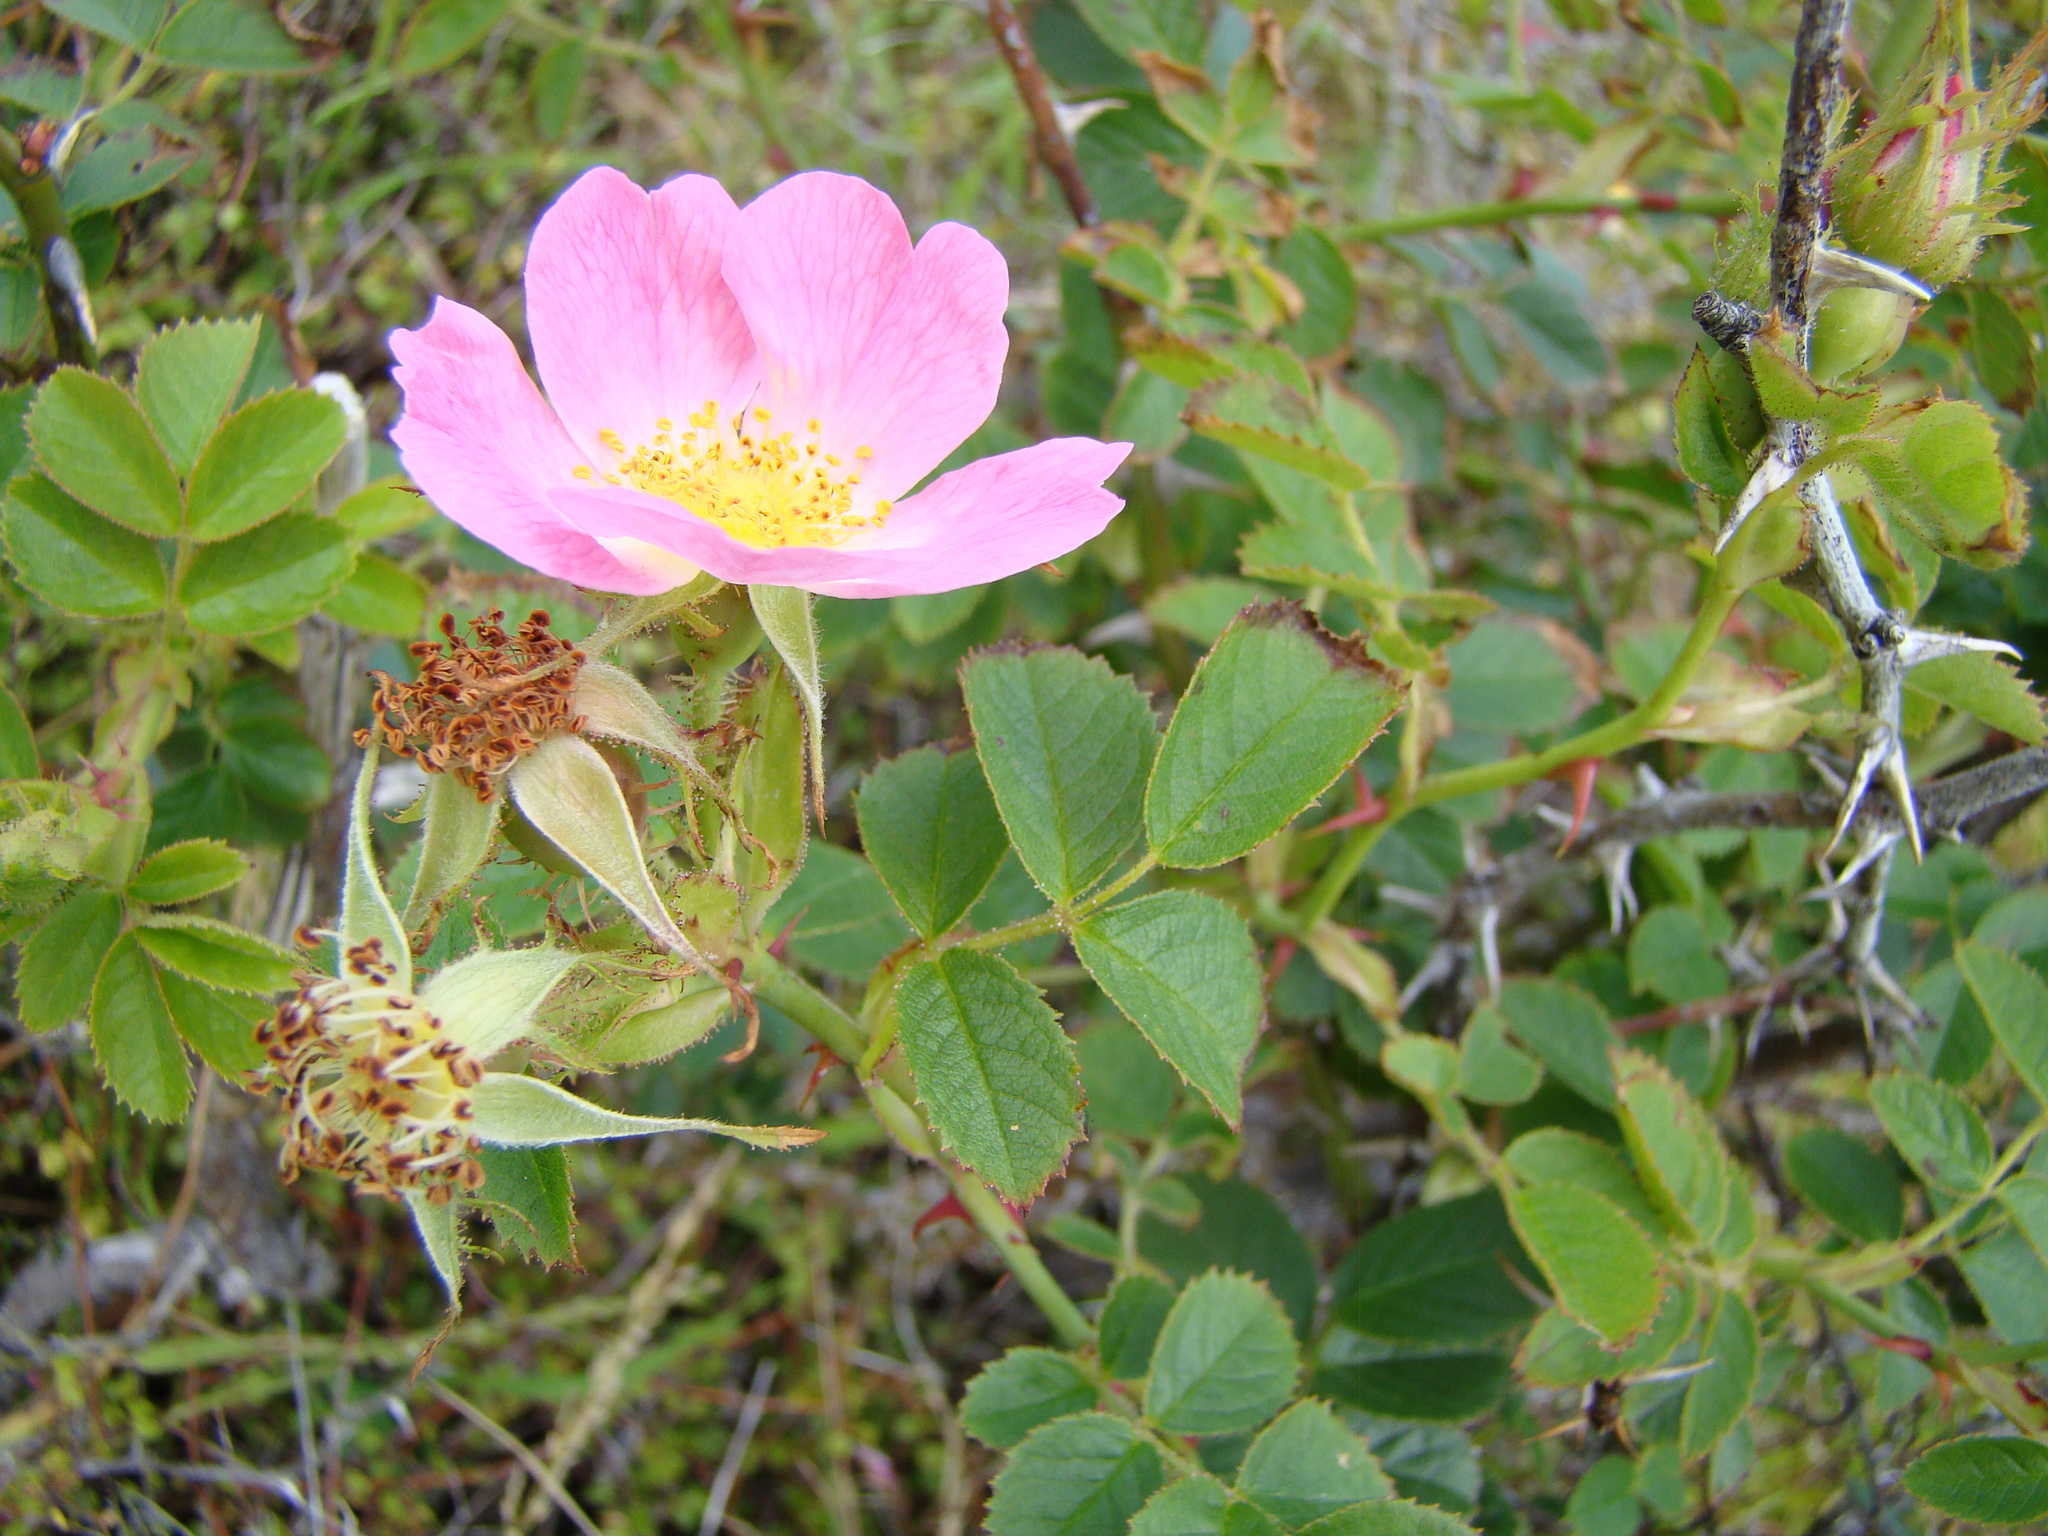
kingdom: Plantae
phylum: Tracheophyta
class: Magnoliopsida
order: Rosales
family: Rosaceae
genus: Rosa
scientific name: Rosa rubiginosa
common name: Sweet-briar
